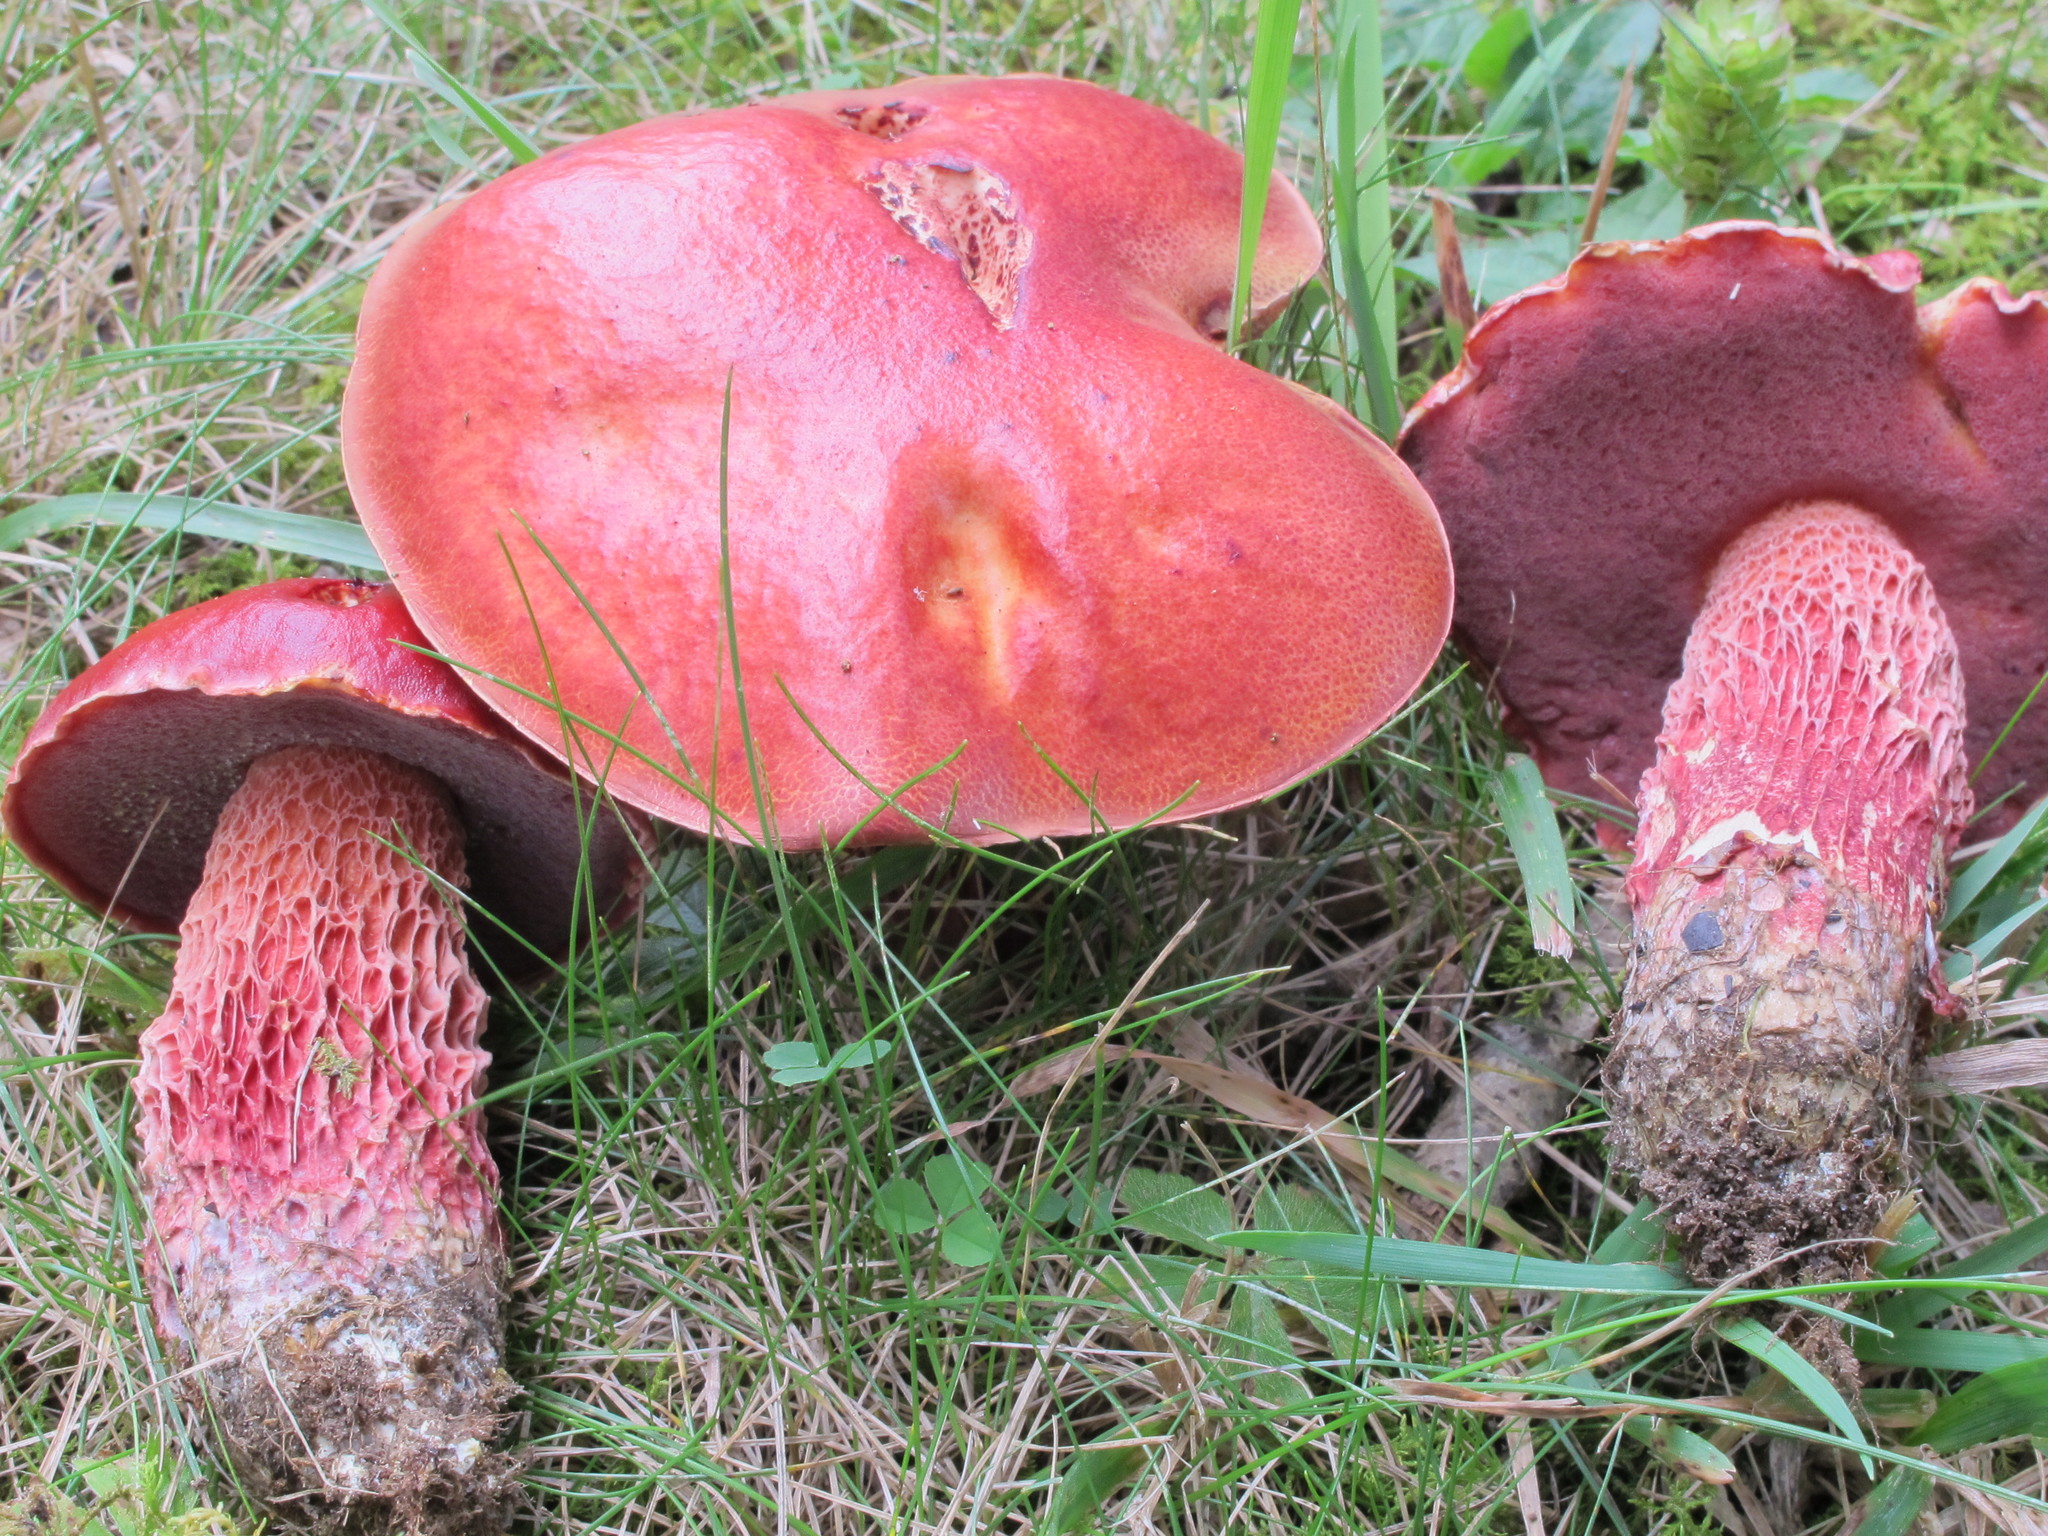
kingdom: Fungi
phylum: Basidiomycota
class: Agaricomycetes
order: Boletales
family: Boletaceae
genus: Butyriboletus
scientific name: Butyriboletus frostii
